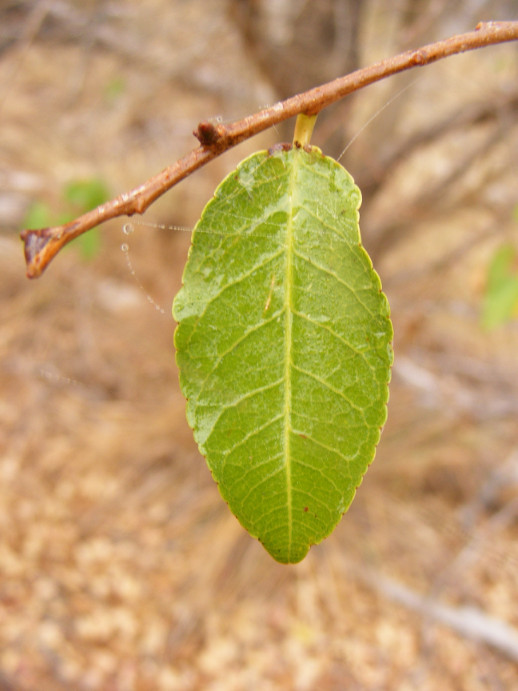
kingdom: Plantae
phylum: Tracheophyta
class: Magnoliopsida
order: Malpighiales
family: Euphorbiaceae
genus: Spirostachys
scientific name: Spirostachys africana
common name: Tamboti
